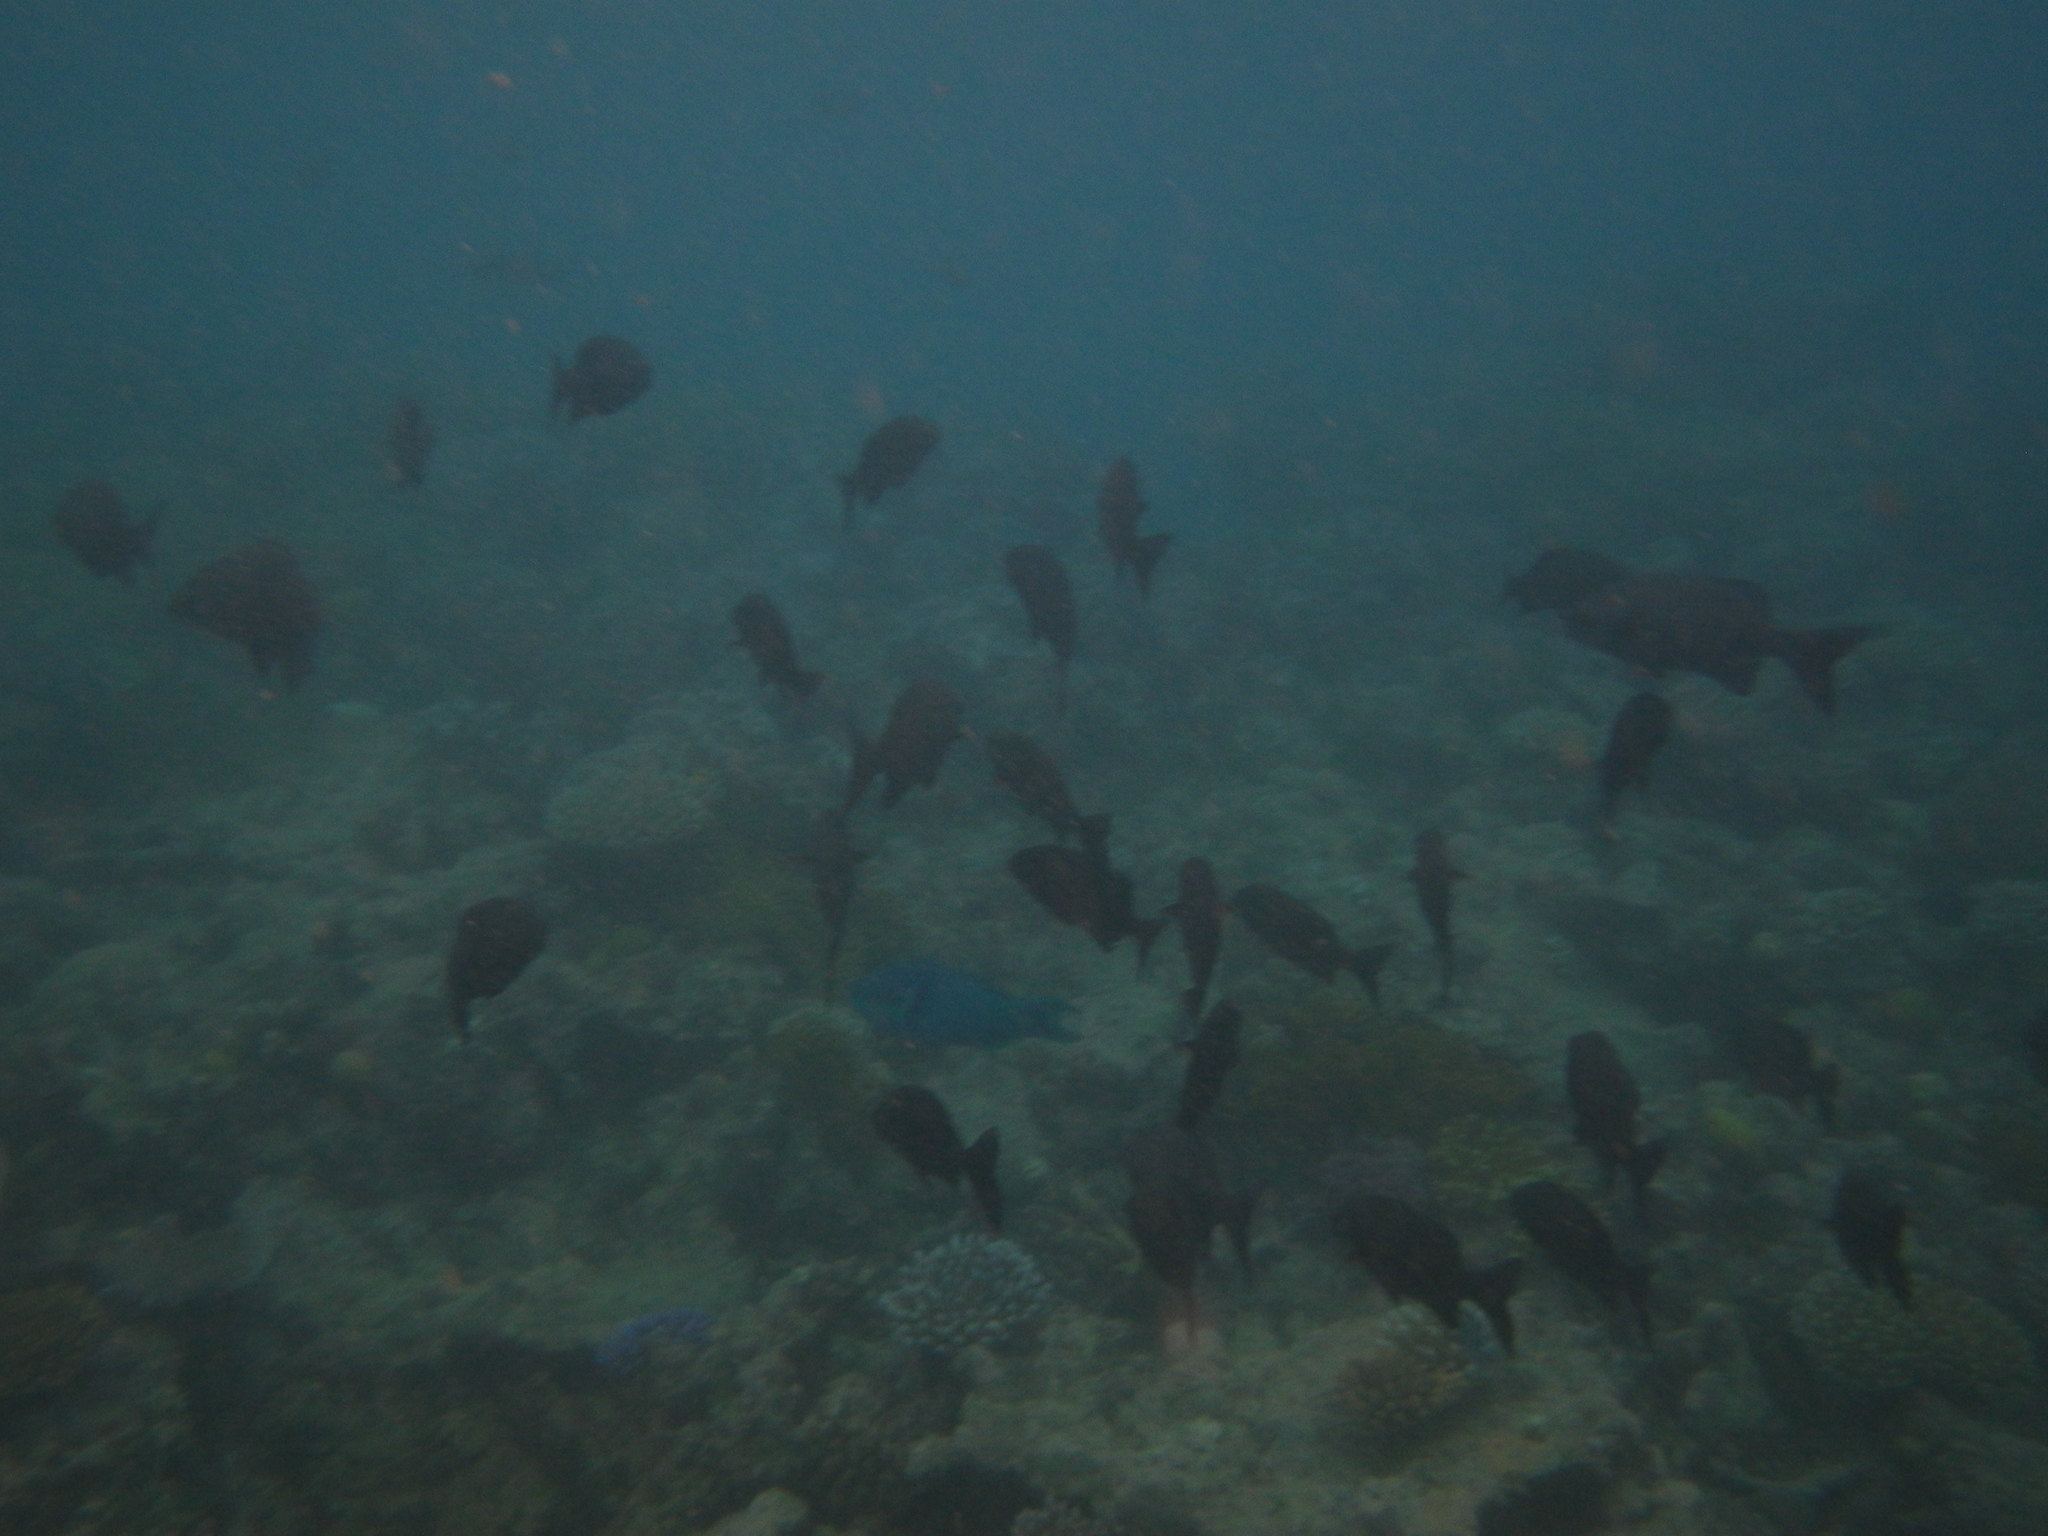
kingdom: Animalia
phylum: Chordata
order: Perciformes
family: Kyphosidae
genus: Kyphosus
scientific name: Kyphosus cinerascens
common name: Topsail drummer
